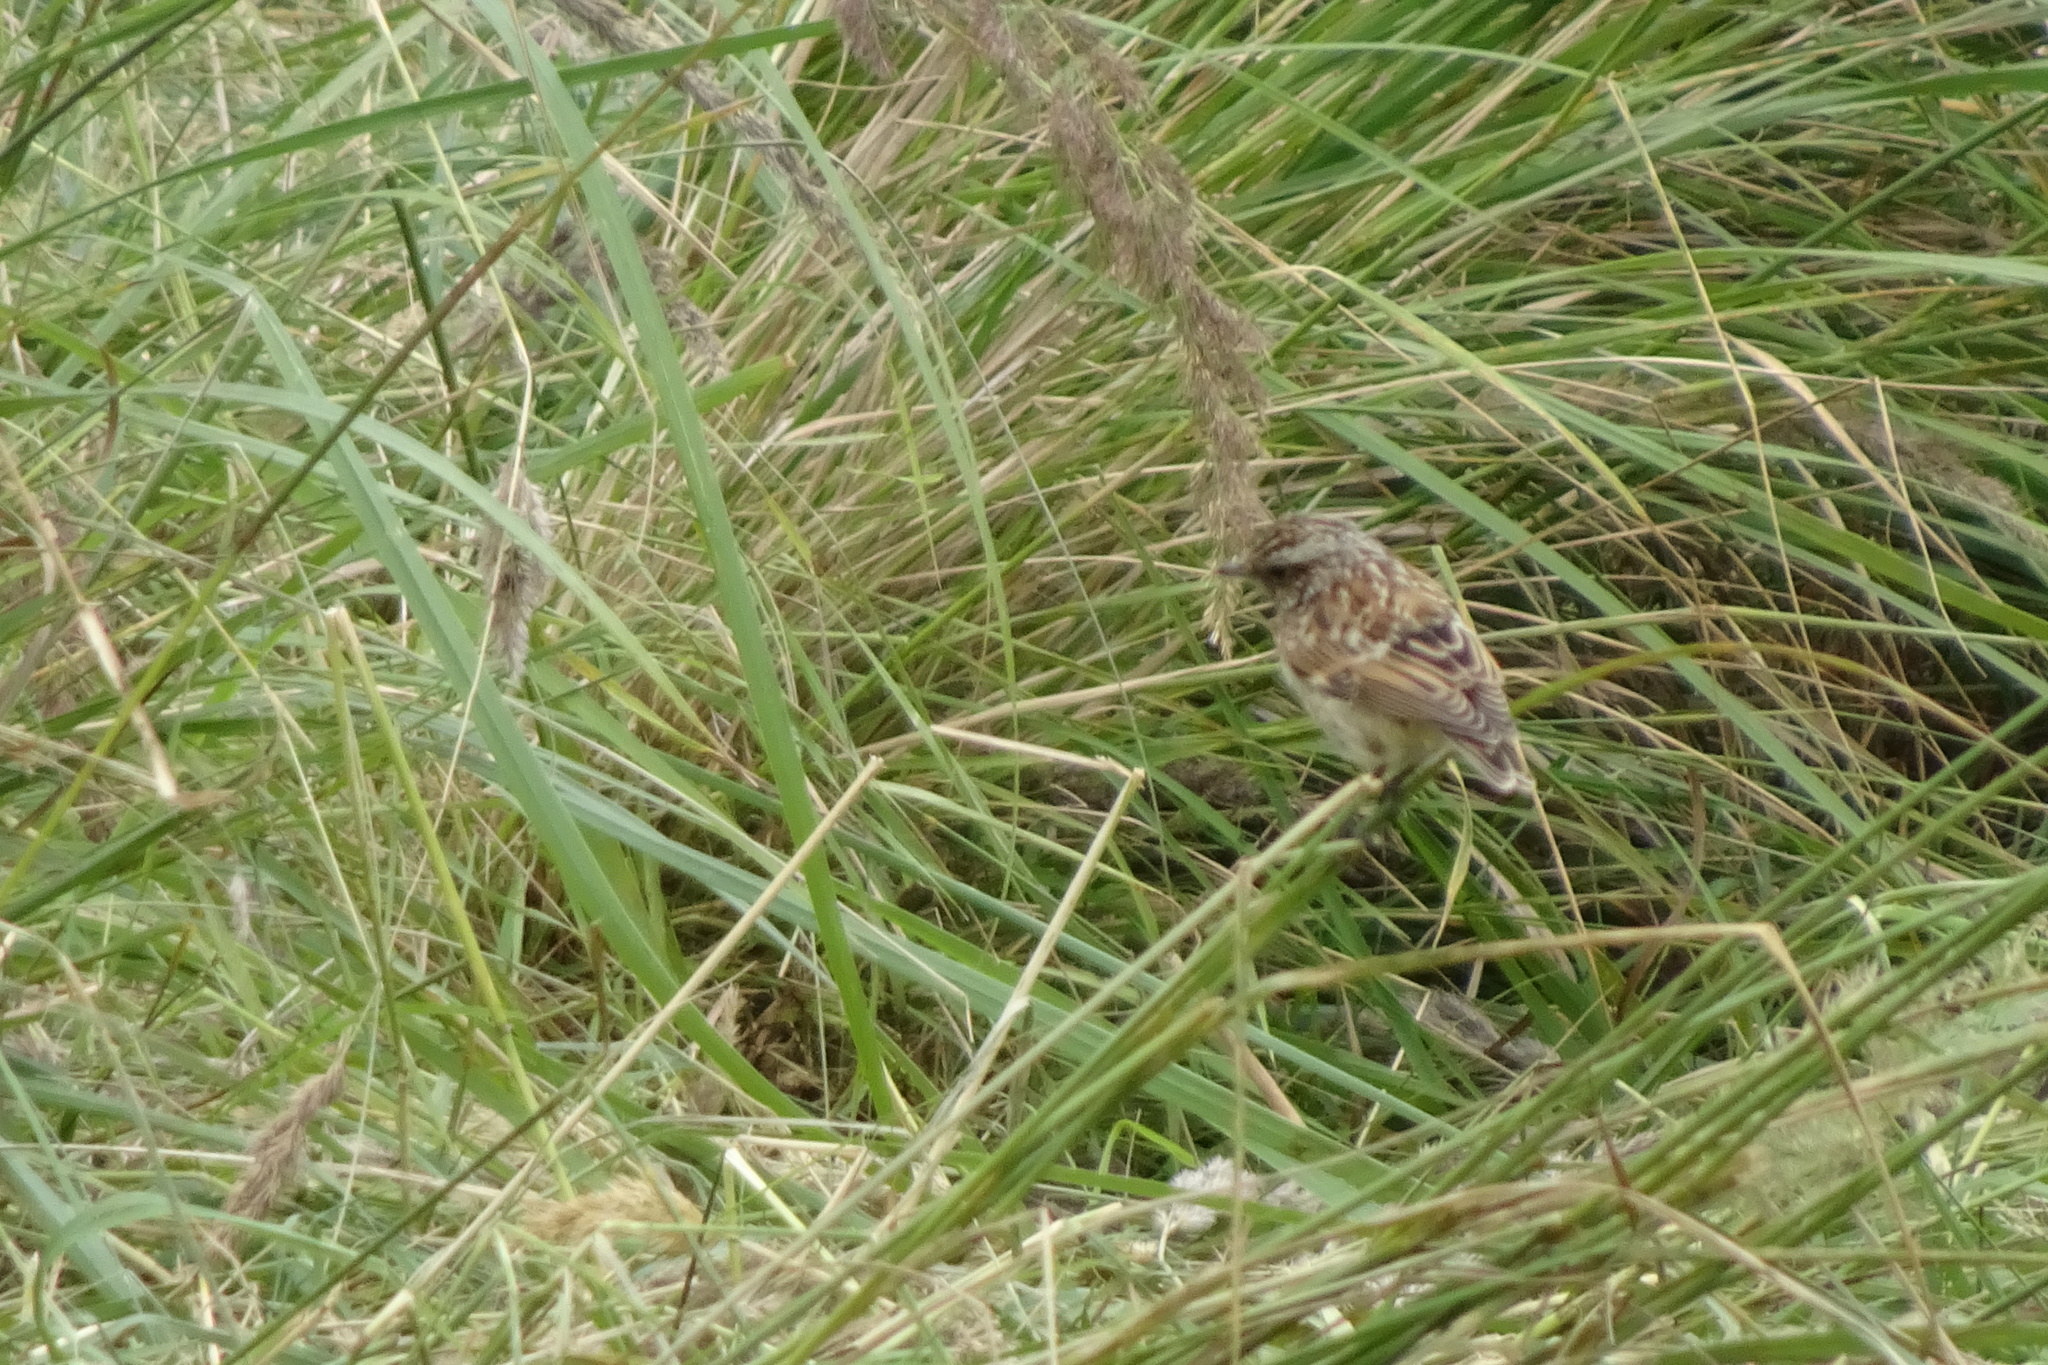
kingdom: Animalia
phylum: Chordata
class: Aves
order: Passeriformes
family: Muscicapidae
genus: Saxicola
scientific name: Saxicola rubetra
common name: Whinchat
